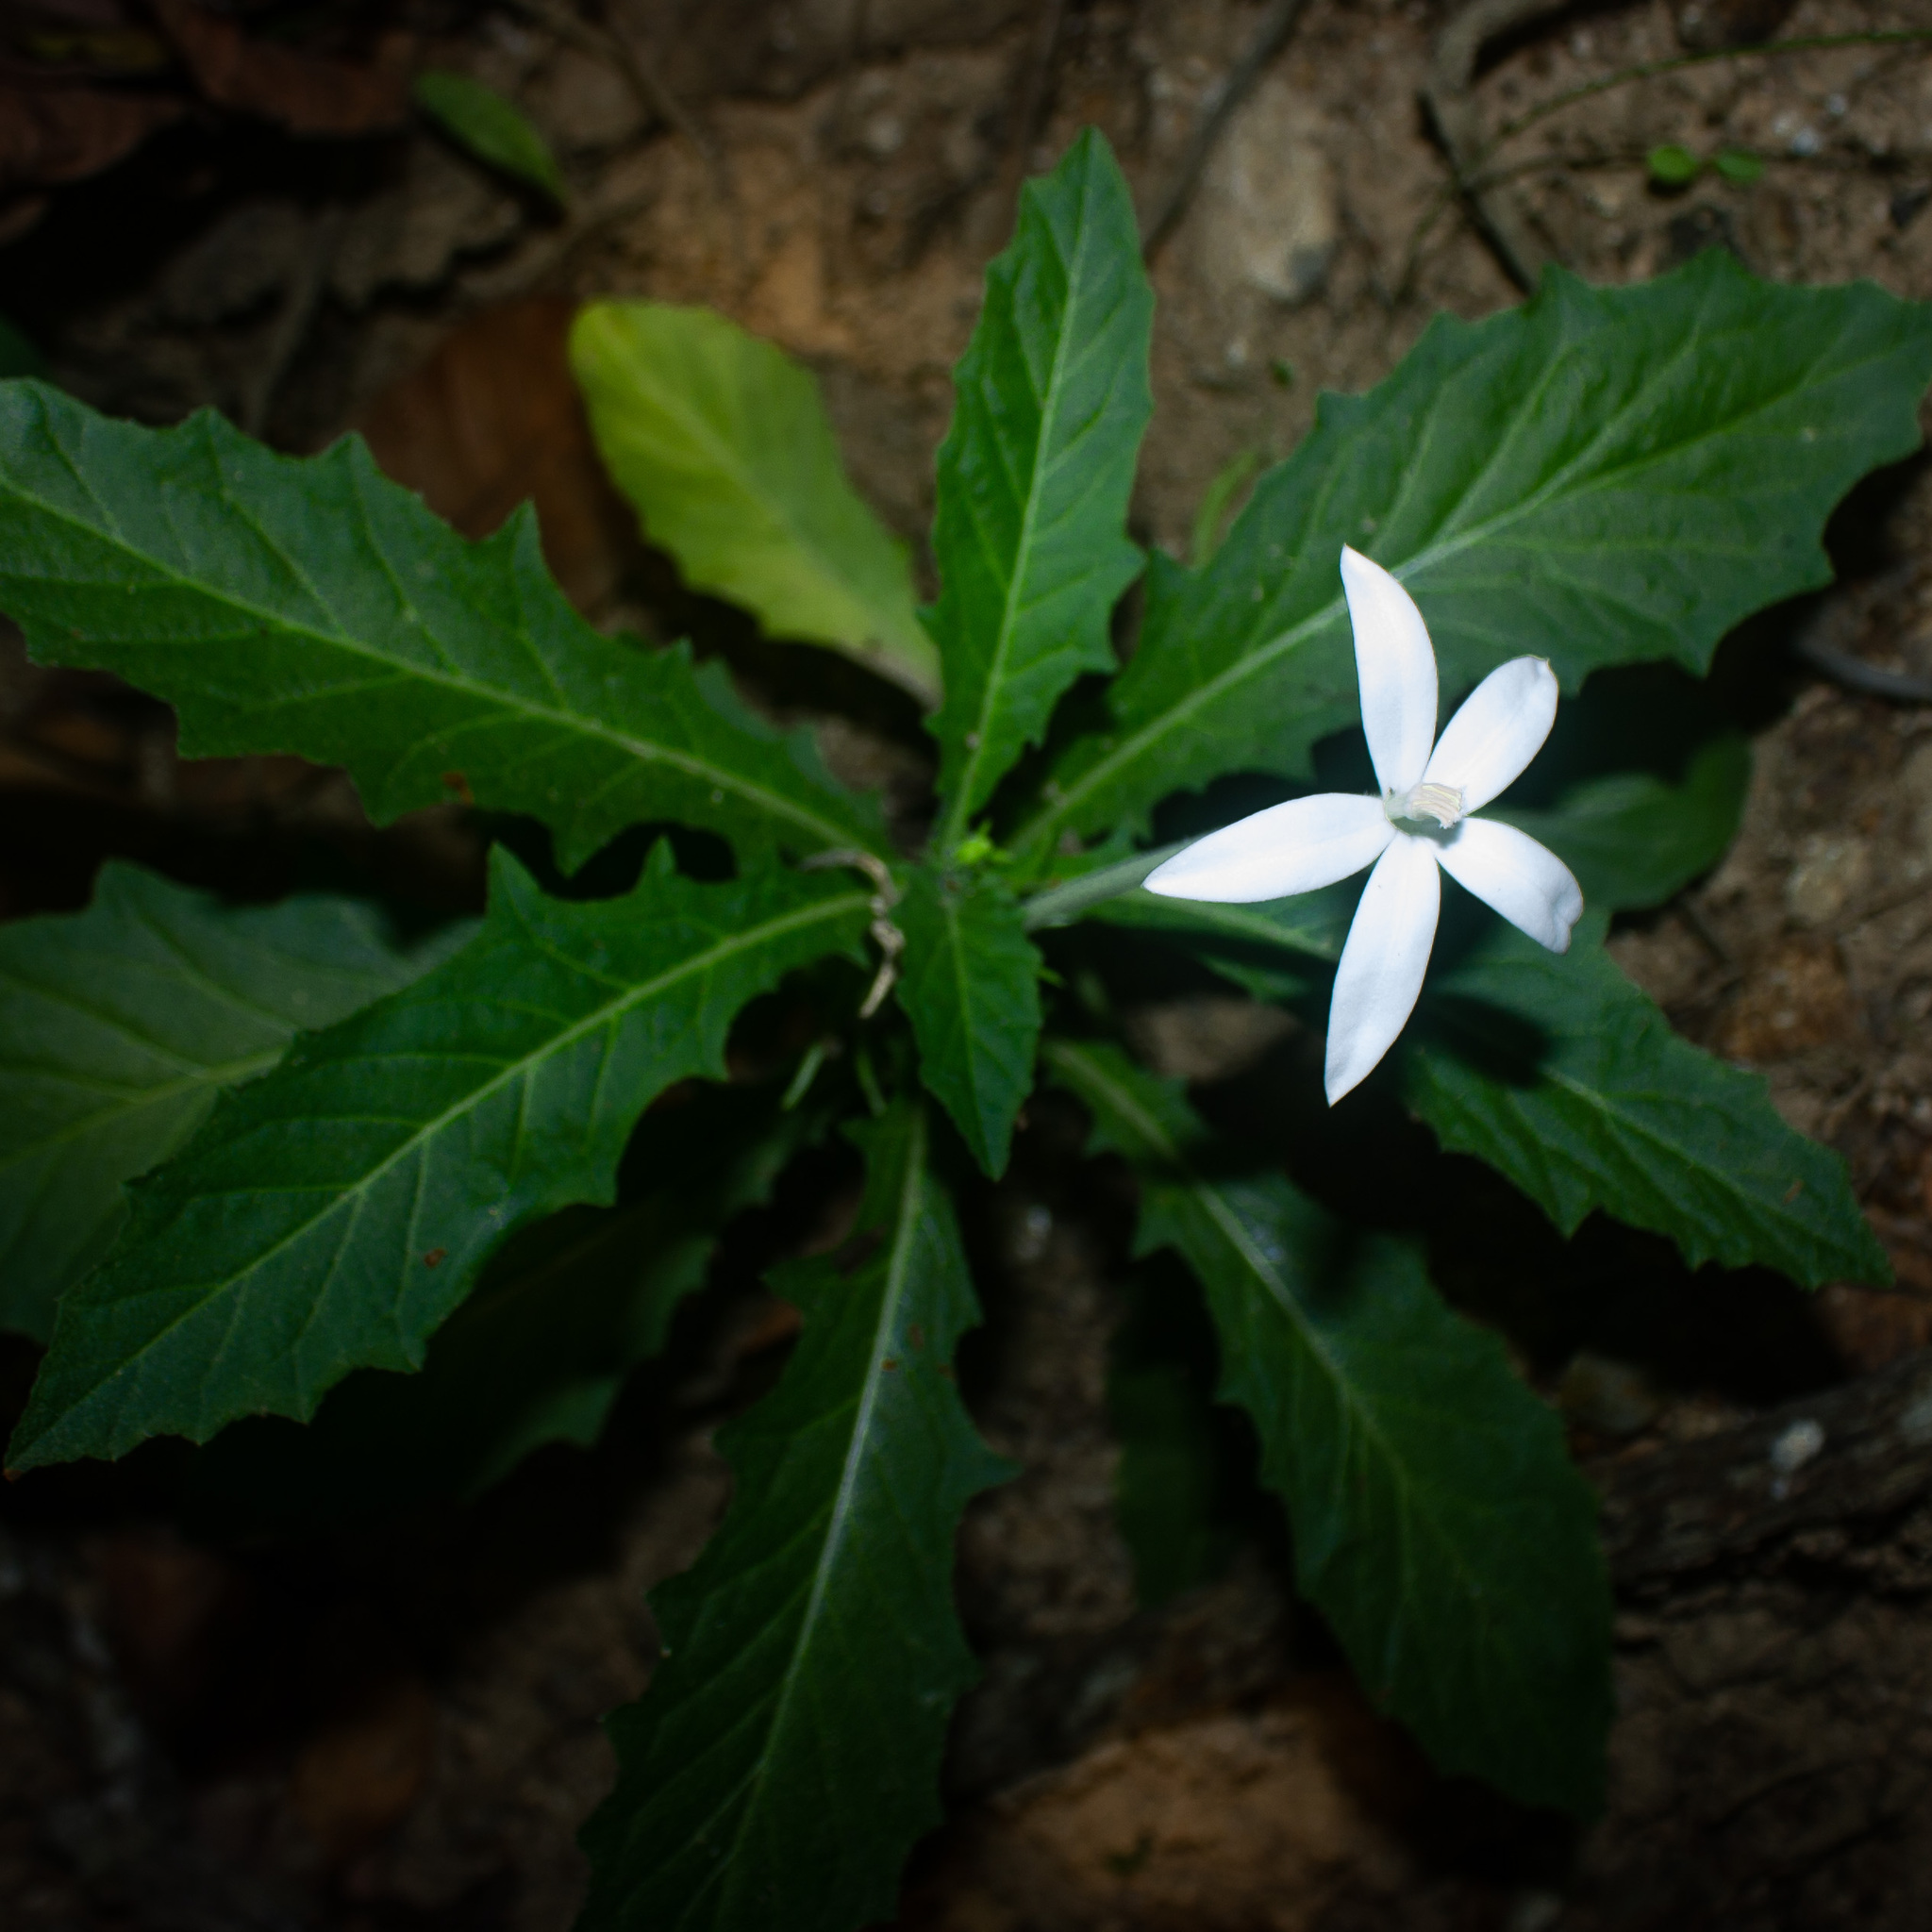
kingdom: Plantae
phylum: Tracheophyta
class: Magnoliopsida
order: Asterales
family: Campanulaceae
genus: Hippobroma
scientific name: Hippobroma longiflora
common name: Madamfate
